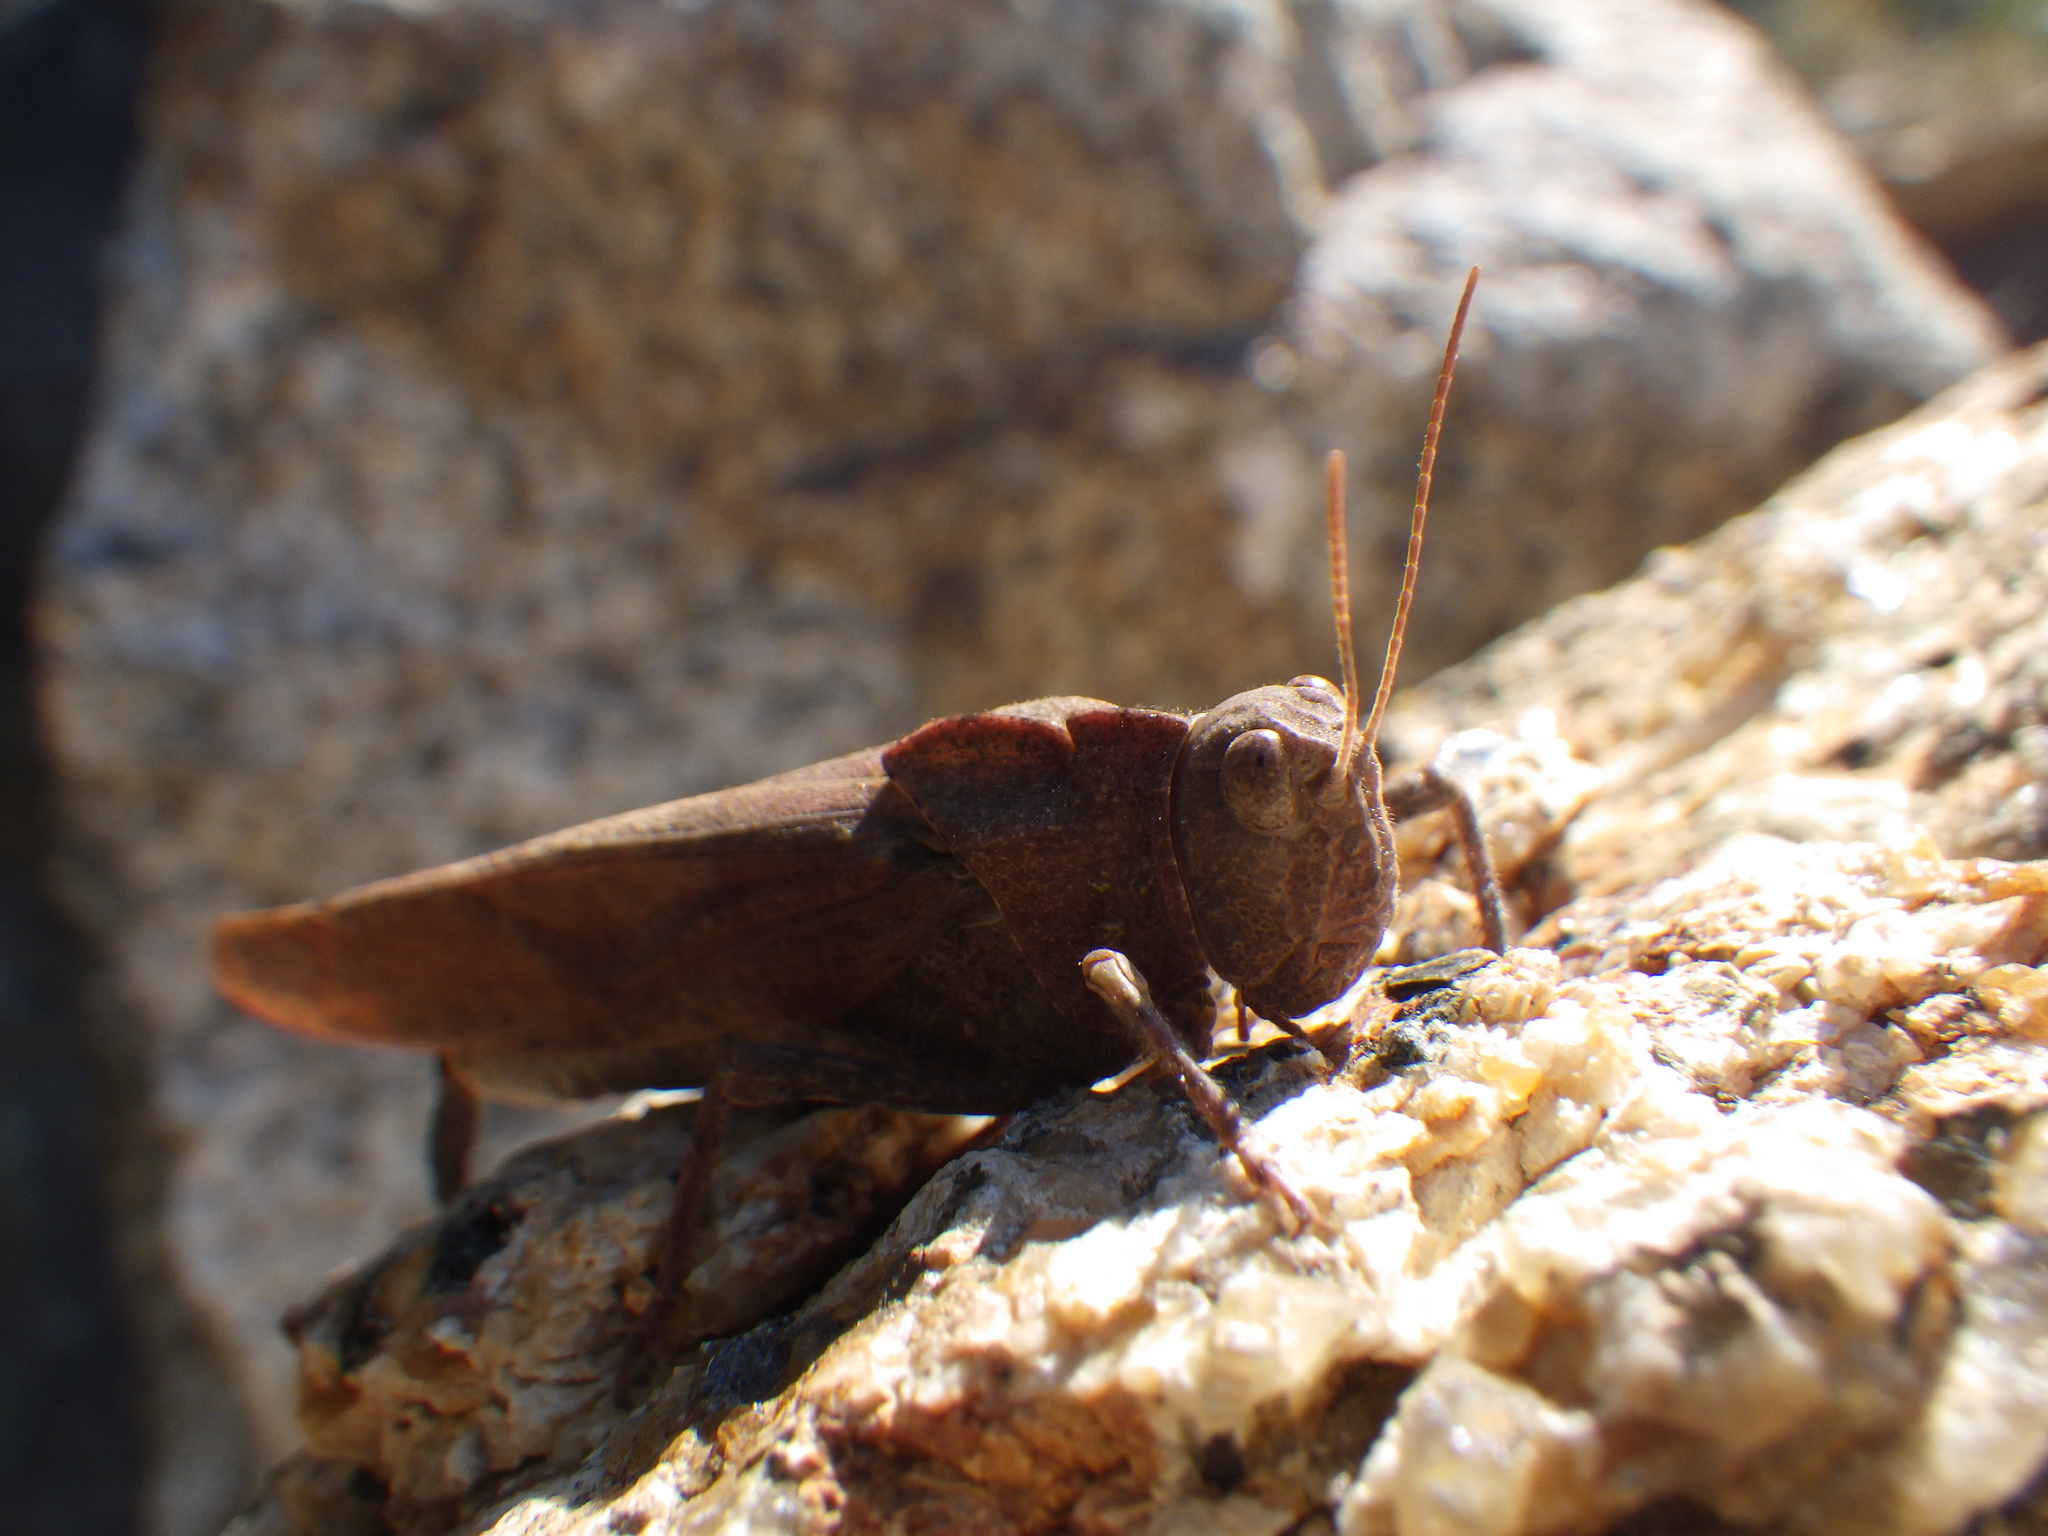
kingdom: Animalia
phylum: Arthropoda
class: Insecta
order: Orthoptera
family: Acrididae
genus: Dissosteira
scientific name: Dissosteira carolina
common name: Carolina grasshopper
